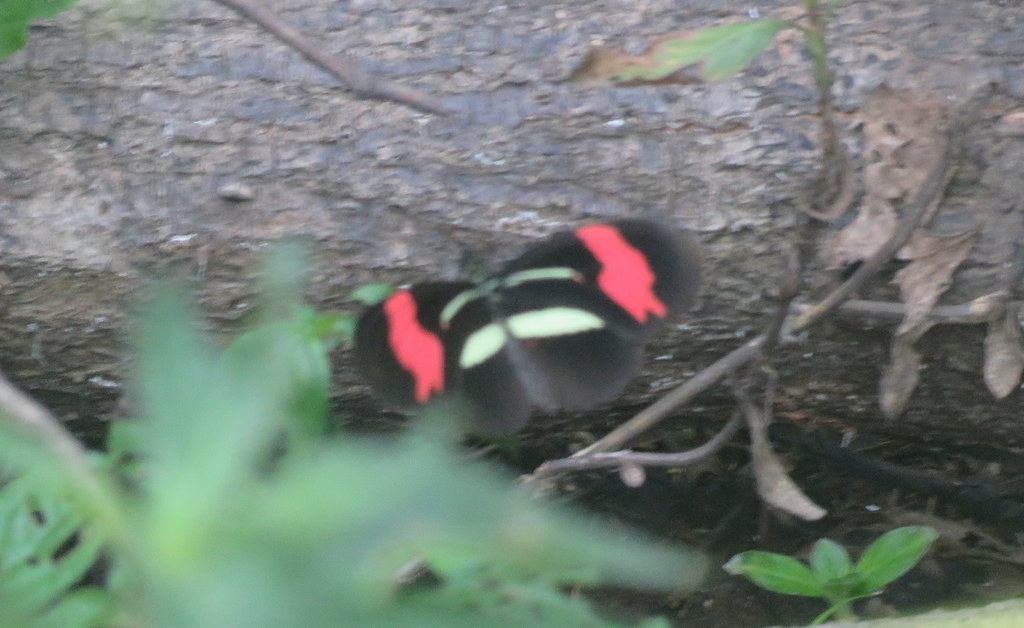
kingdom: Animalia
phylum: Arthropoda
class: Insecta
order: Lepidoptera
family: Nymphalidae
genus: Heliconius
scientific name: Heliconius erato
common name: Common patch longwing
